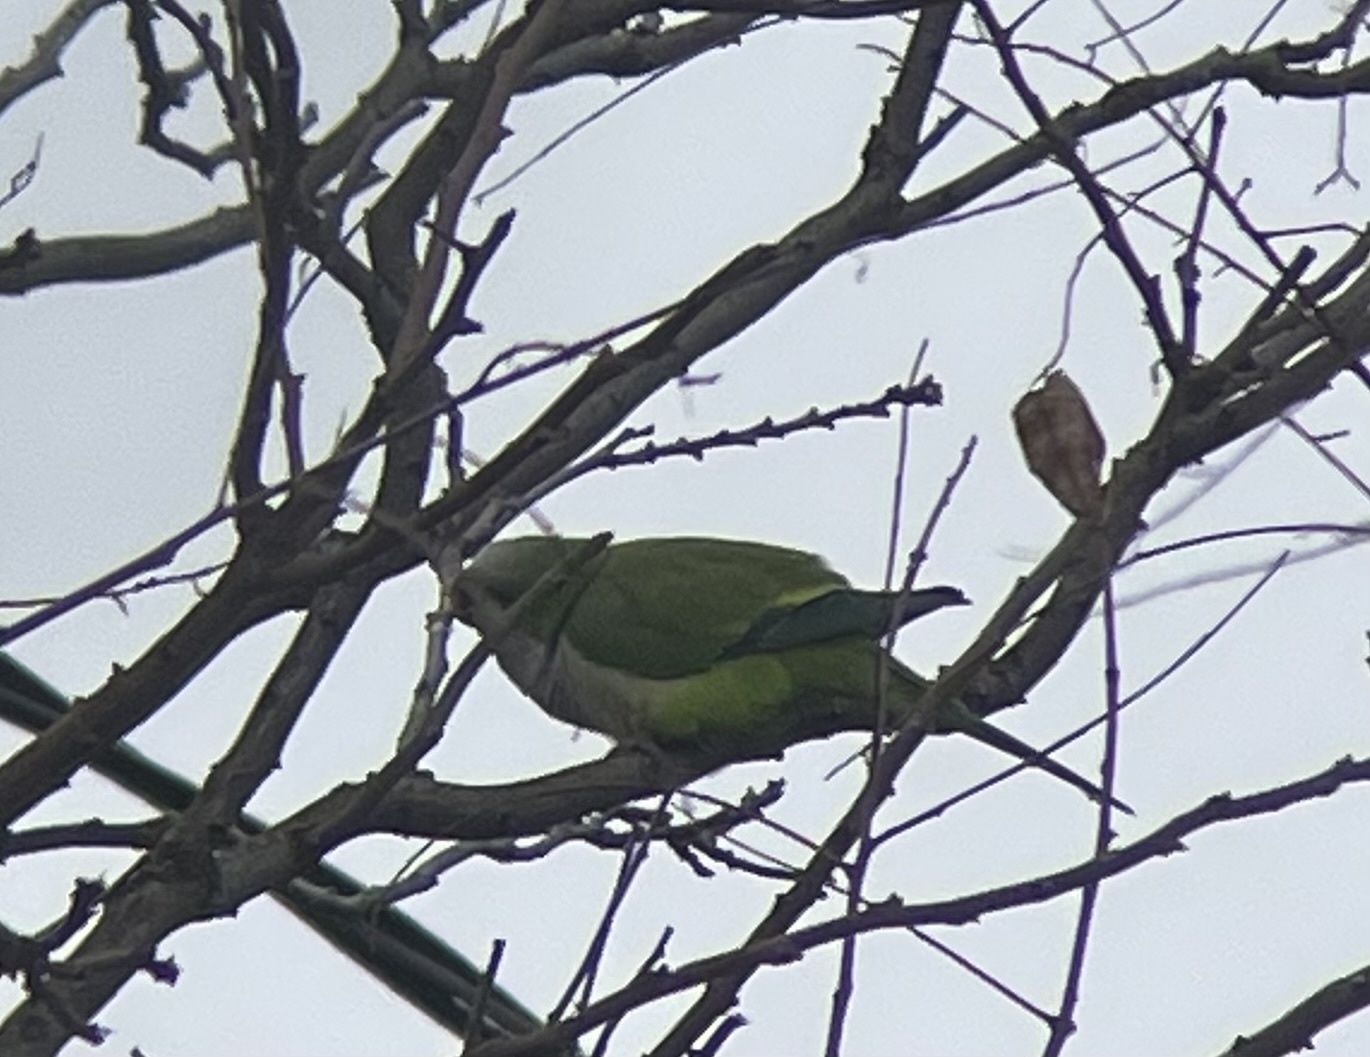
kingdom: Animalia
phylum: Chordata
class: Aves
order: Psittaciformes
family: Psittacidae
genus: Myiopsitta
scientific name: Myiopsitta monachus
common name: Monk parakeet
